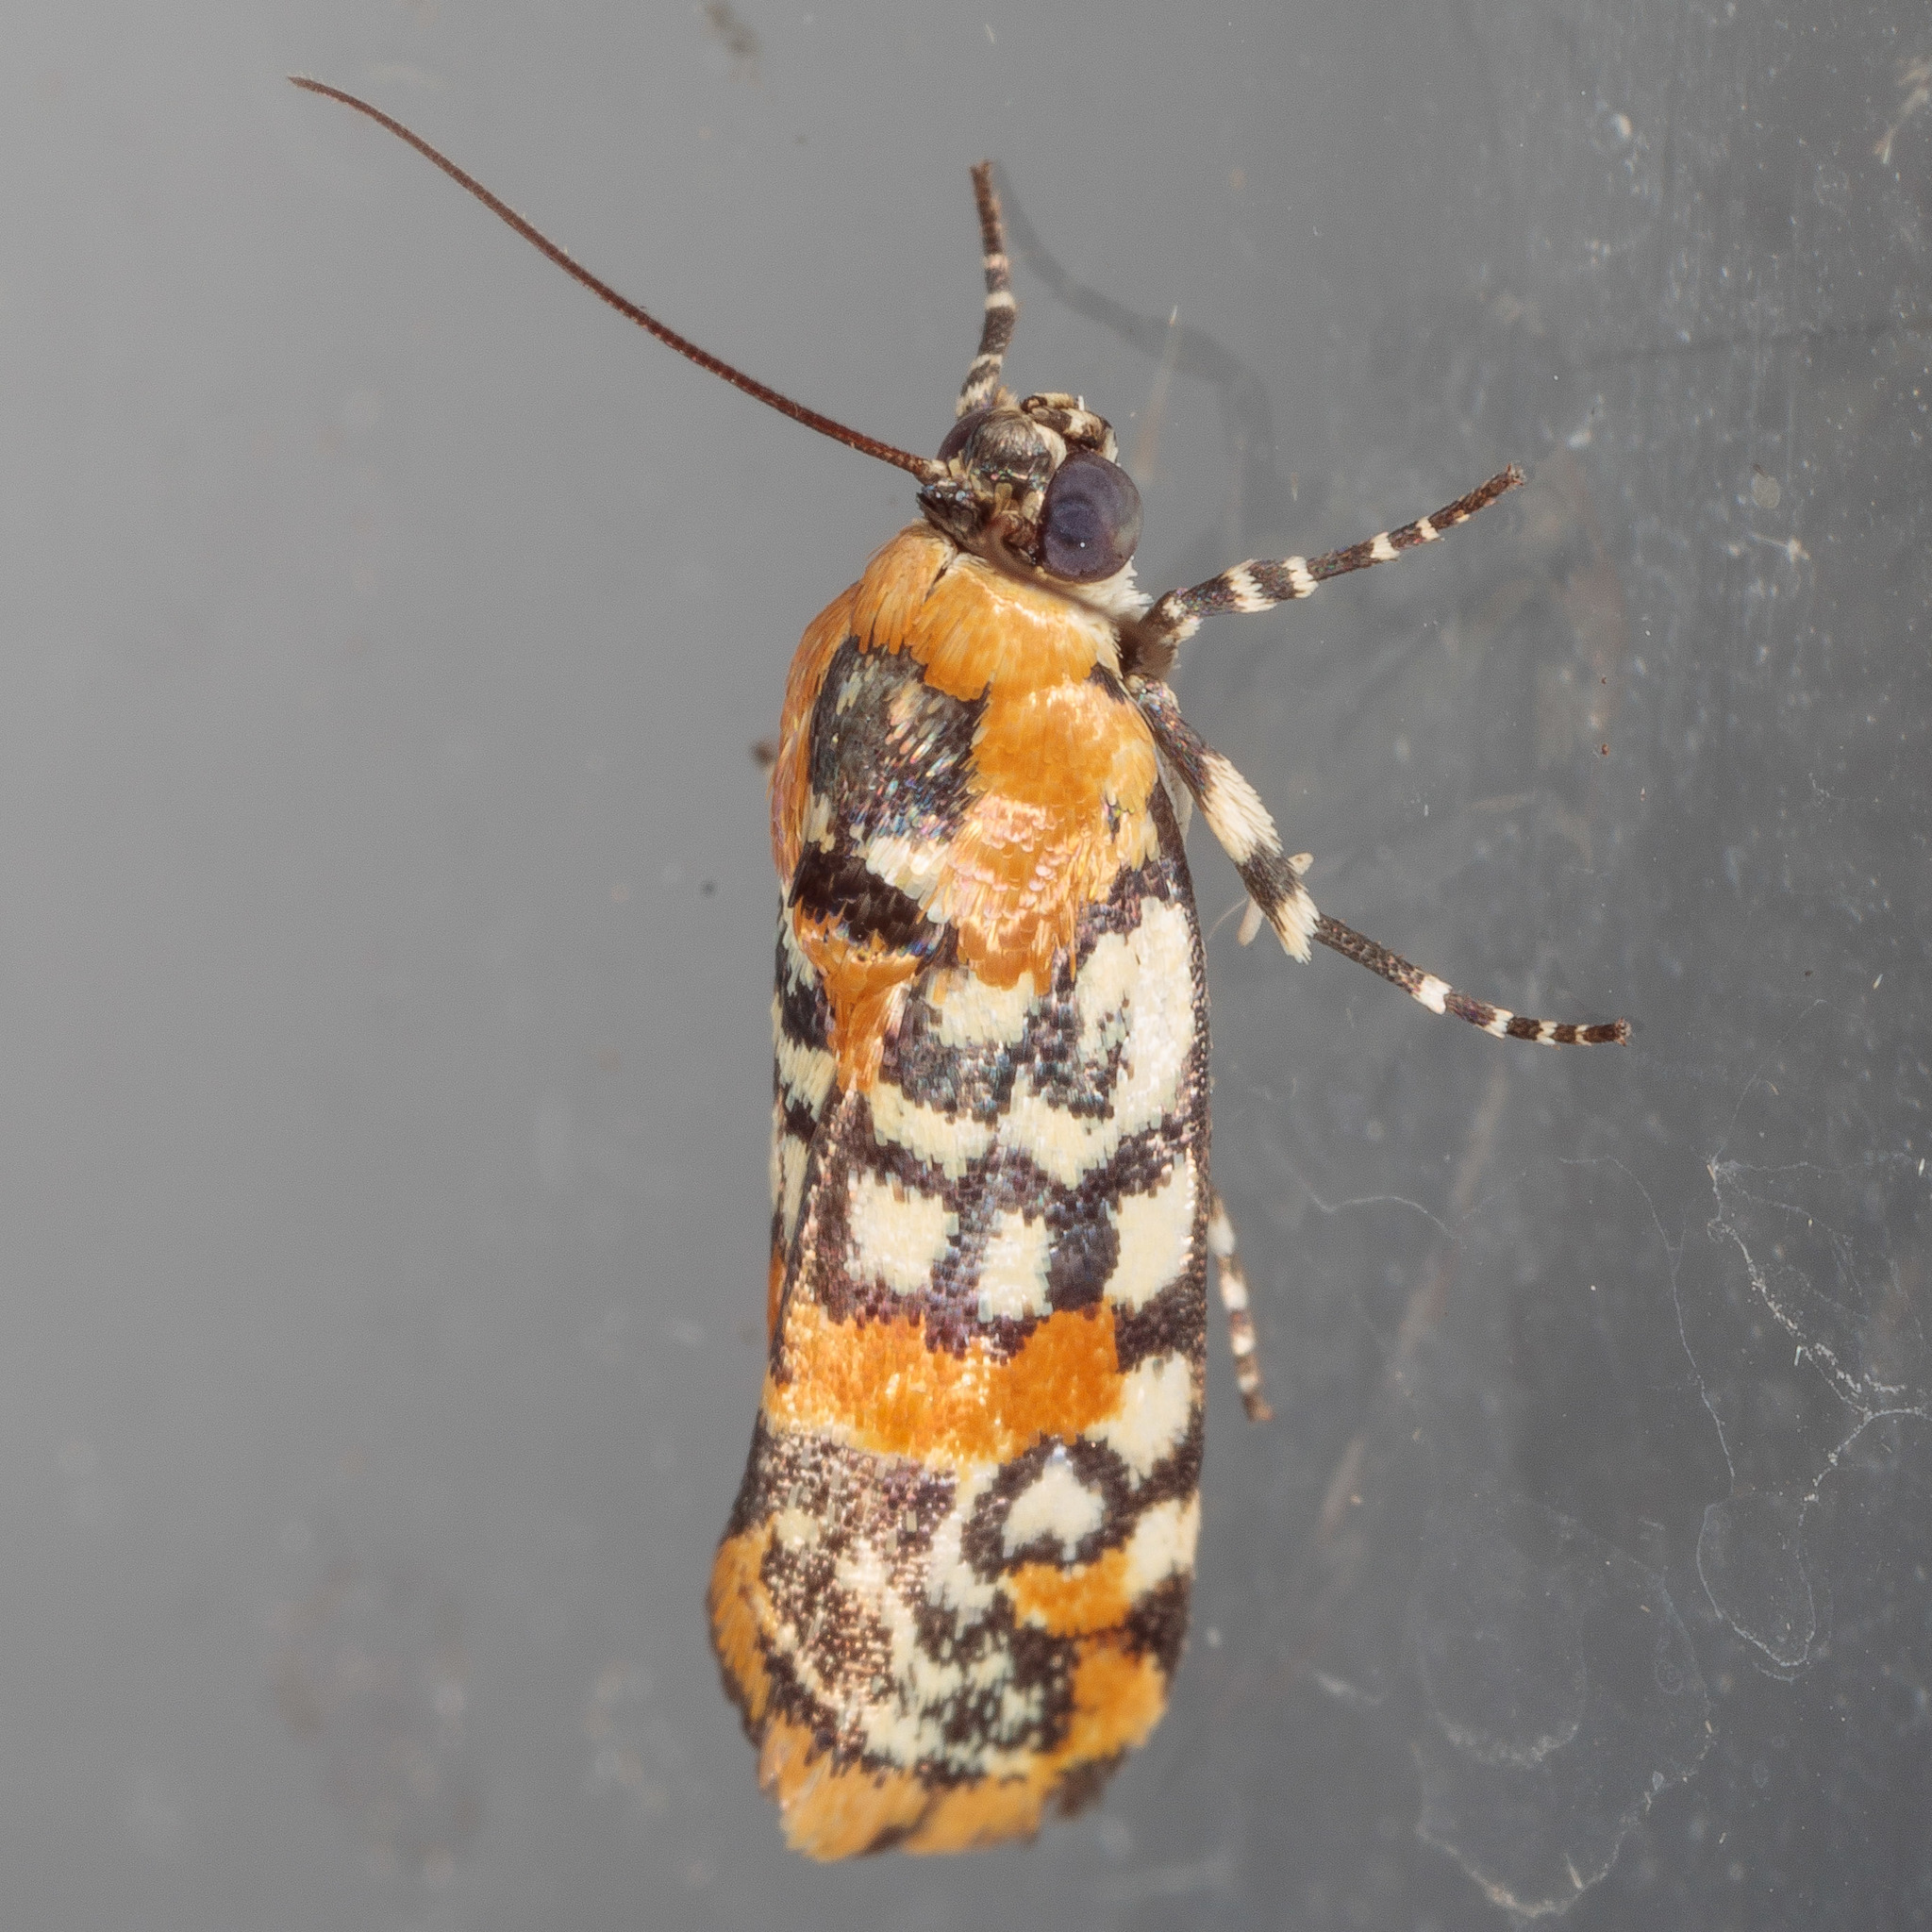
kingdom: Animalia
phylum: Arthropoda
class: Insecta
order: Lepidoptera
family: Noctuidae
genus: Spragueia
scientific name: Spragueia guttata
